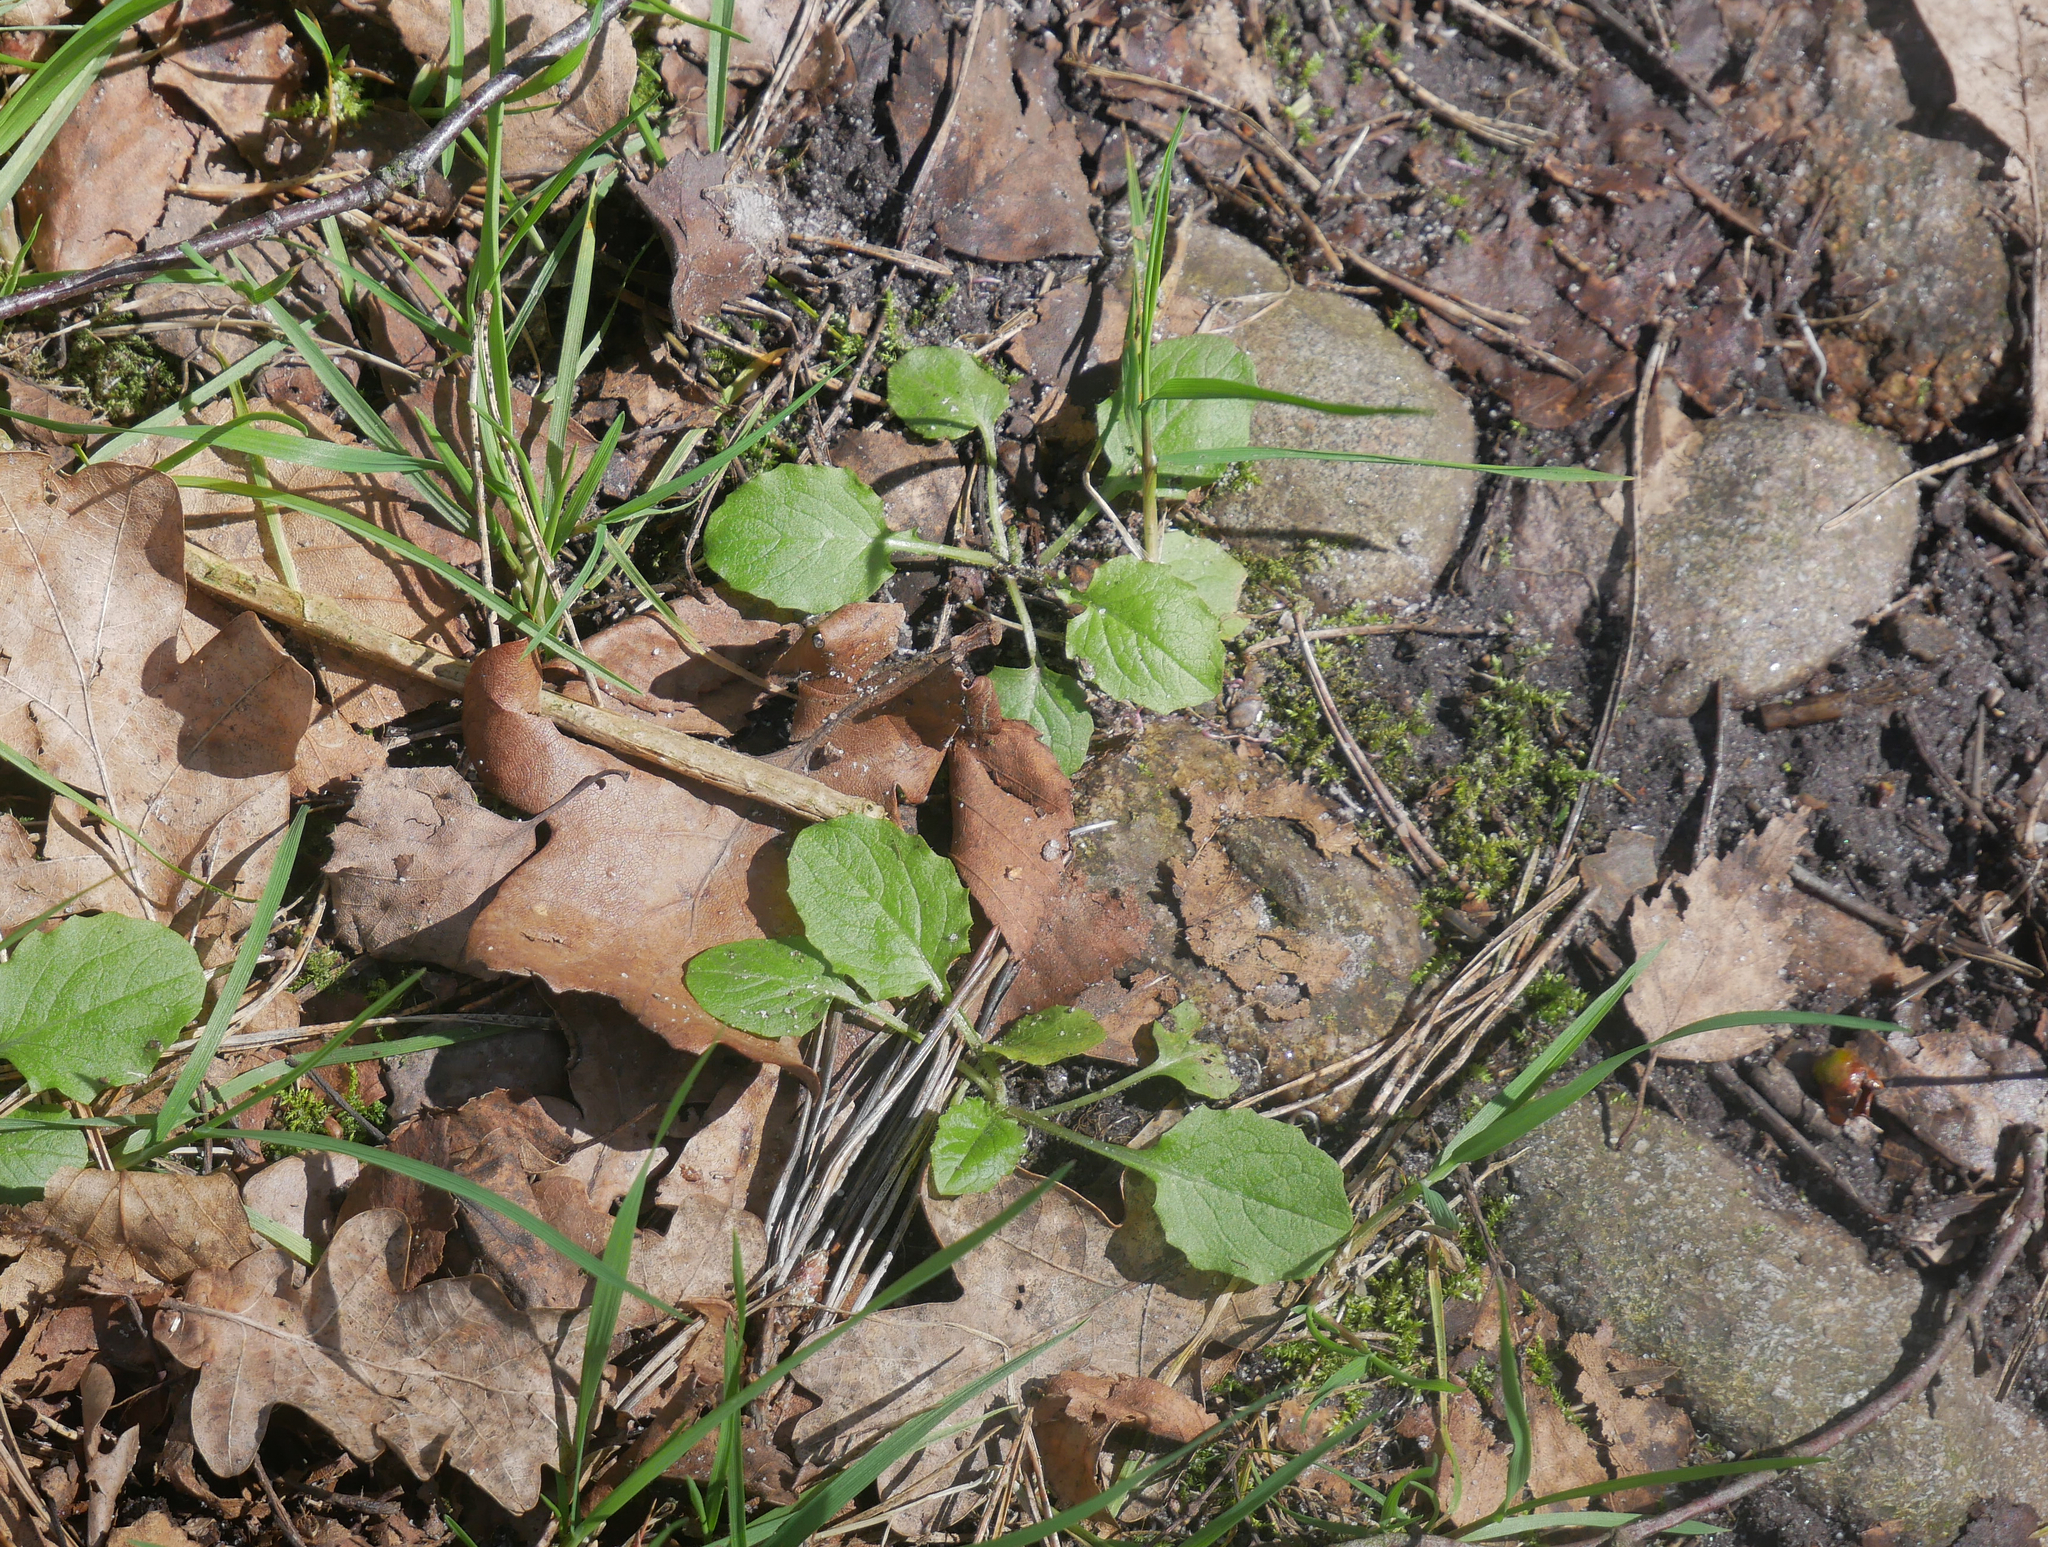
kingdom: Plantae
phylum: Tracheophyta
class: Magnoliopsida
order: Asterales
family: Asteraceae
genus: Lapsana
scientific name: Lapsana communis
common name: Nipplewort
